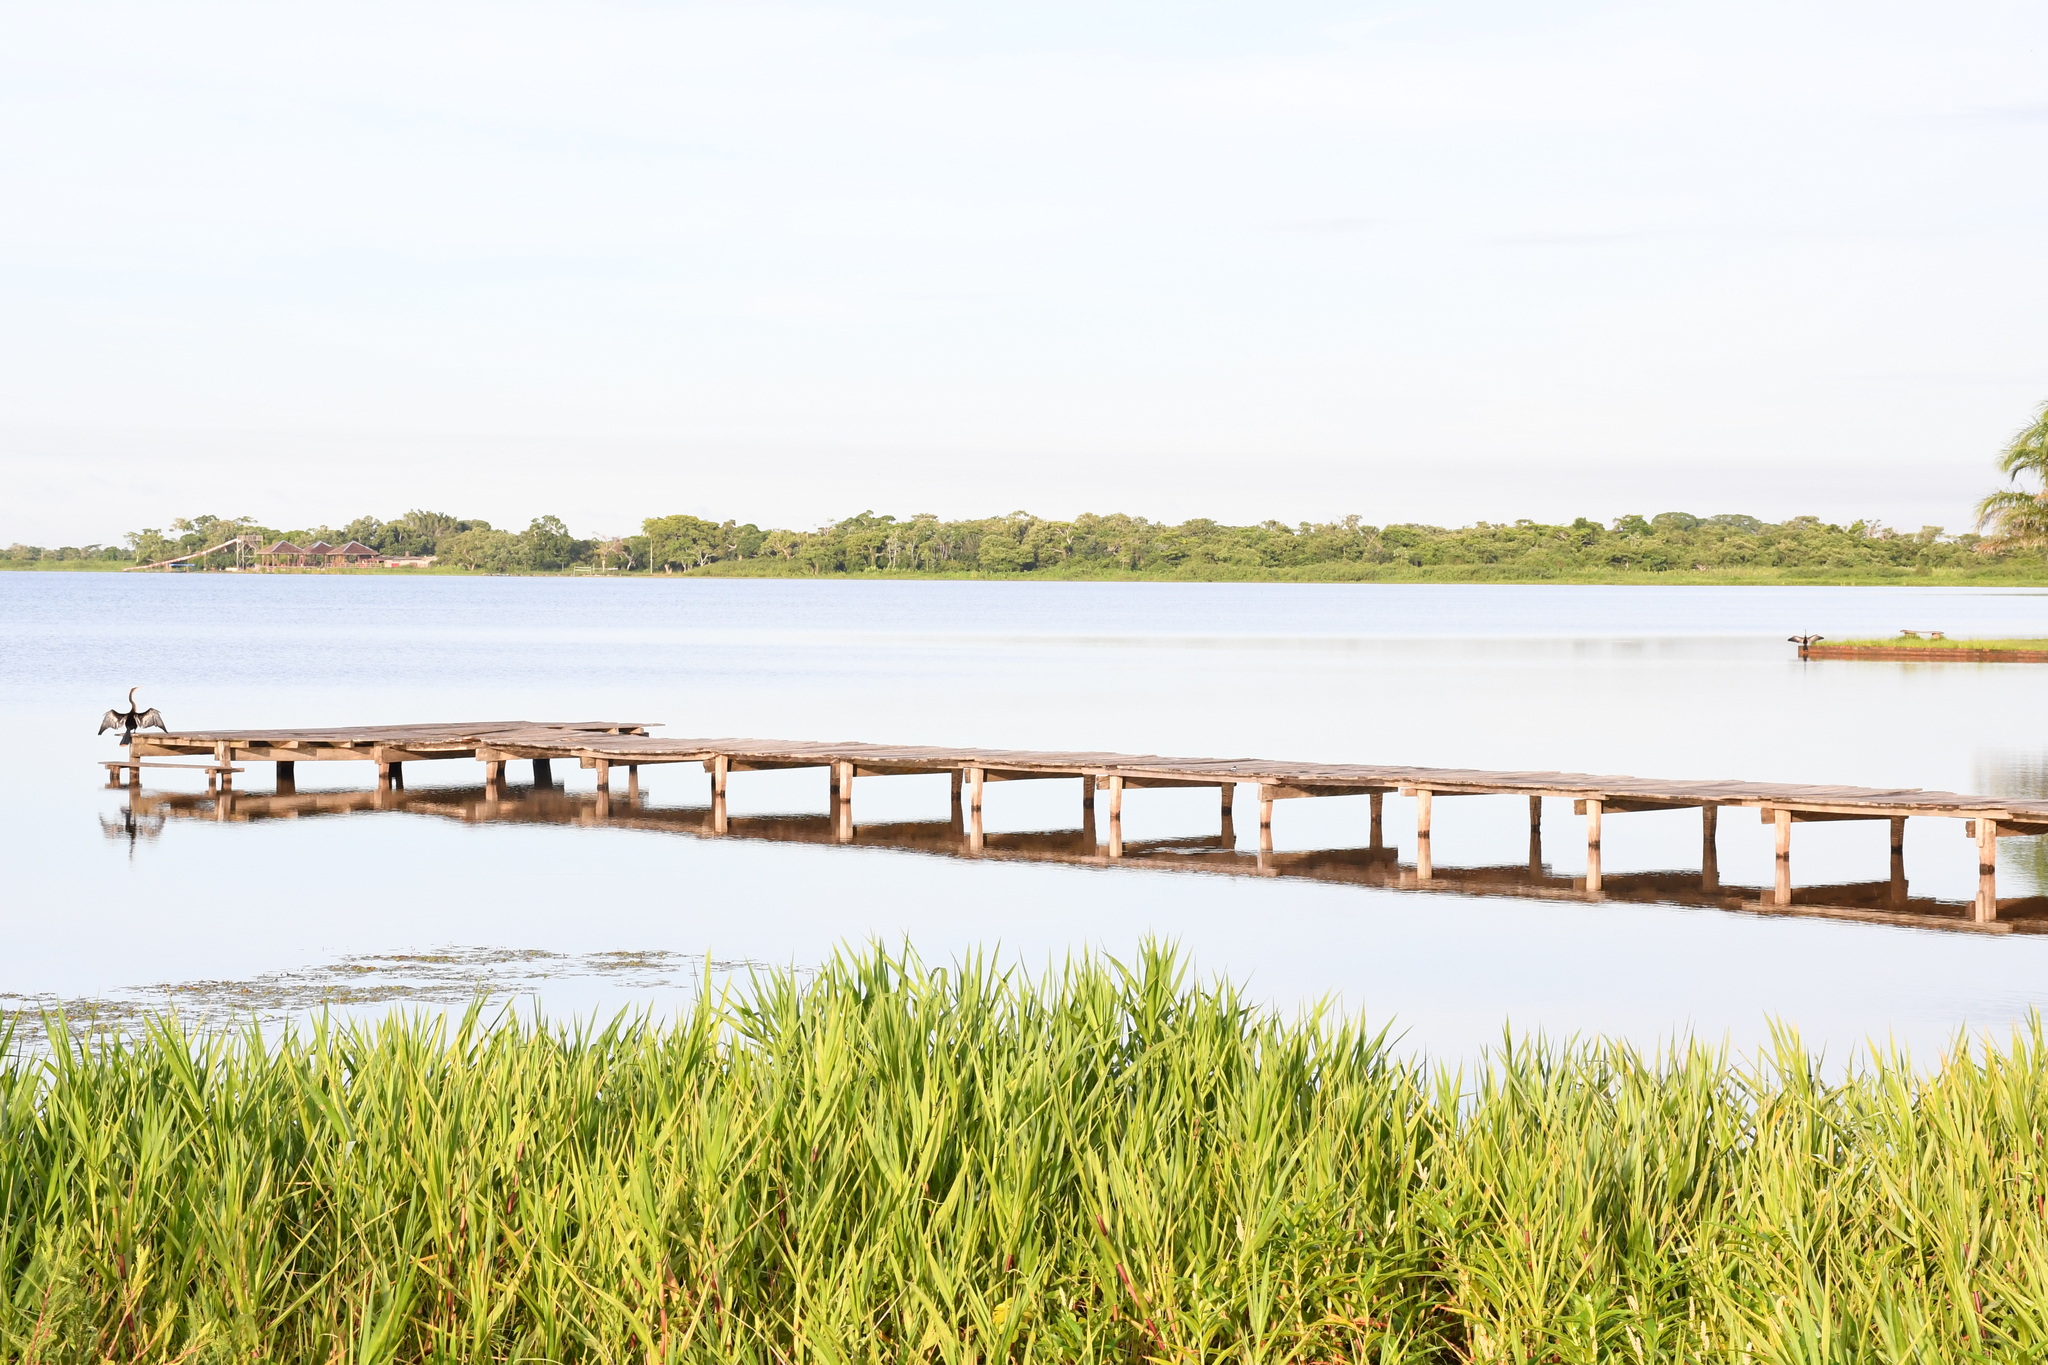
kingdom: Animalia
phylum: Chordata
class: Aves
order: Suliformes
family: Anhingidae
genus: Anhinga
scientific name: Anhinga anhinga
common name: Anhinga
